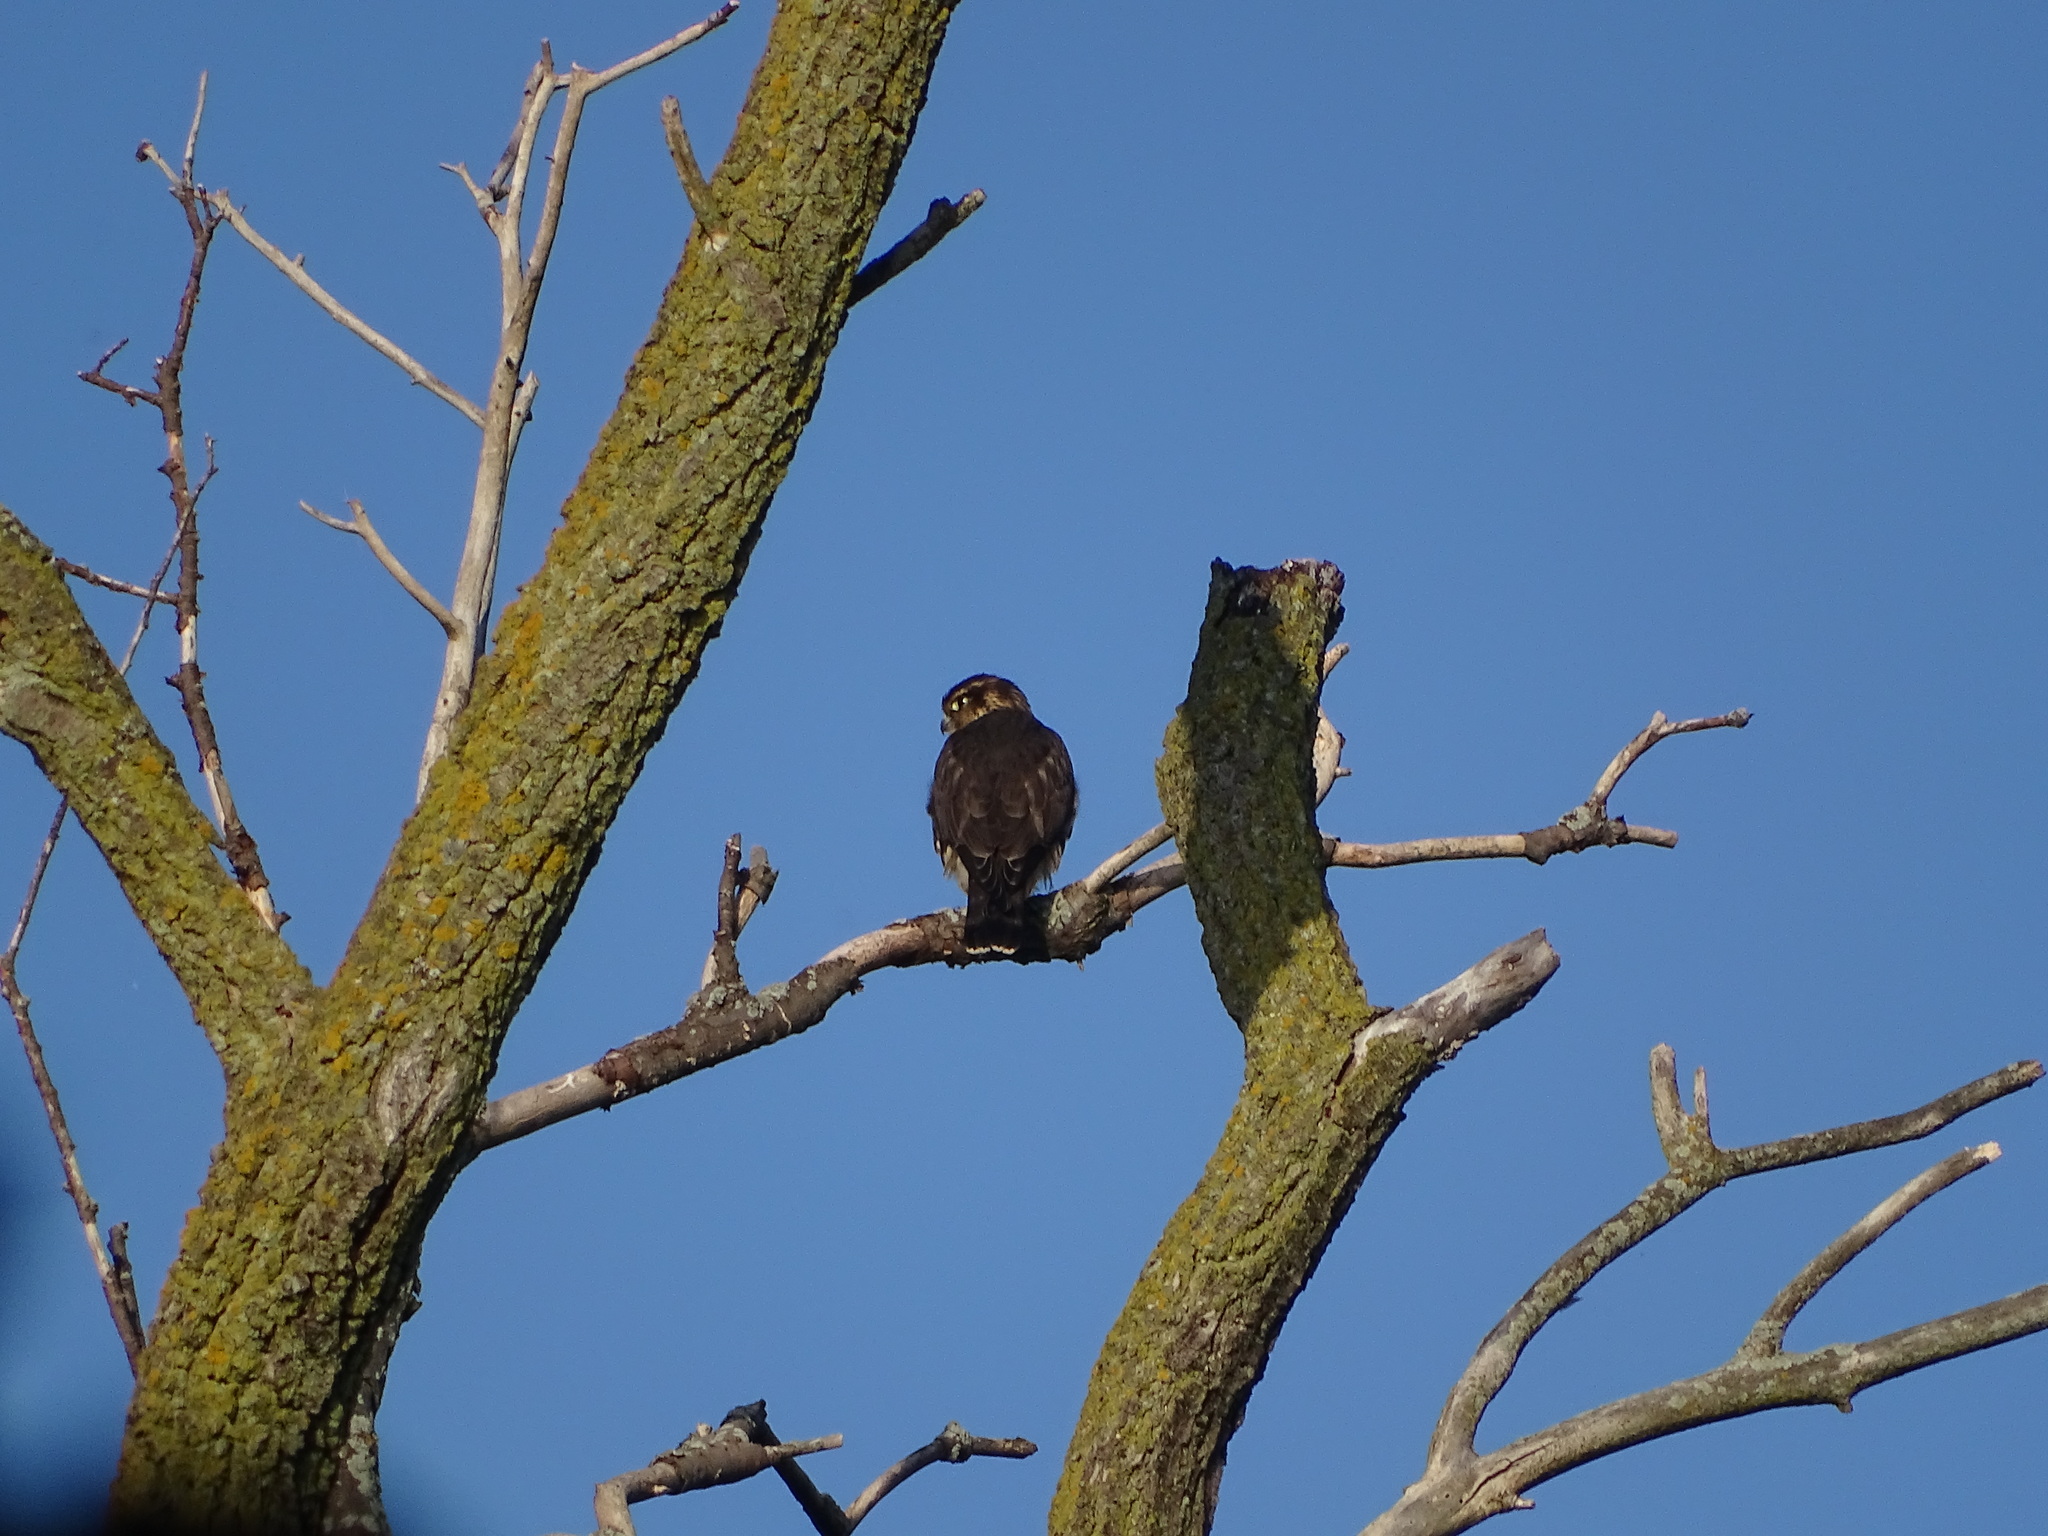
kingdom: Animalia
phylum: Chordata
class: Aves
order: Falconiformes
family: Falconidae
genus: Falco
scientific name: Falco columbarius
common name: Merlin
